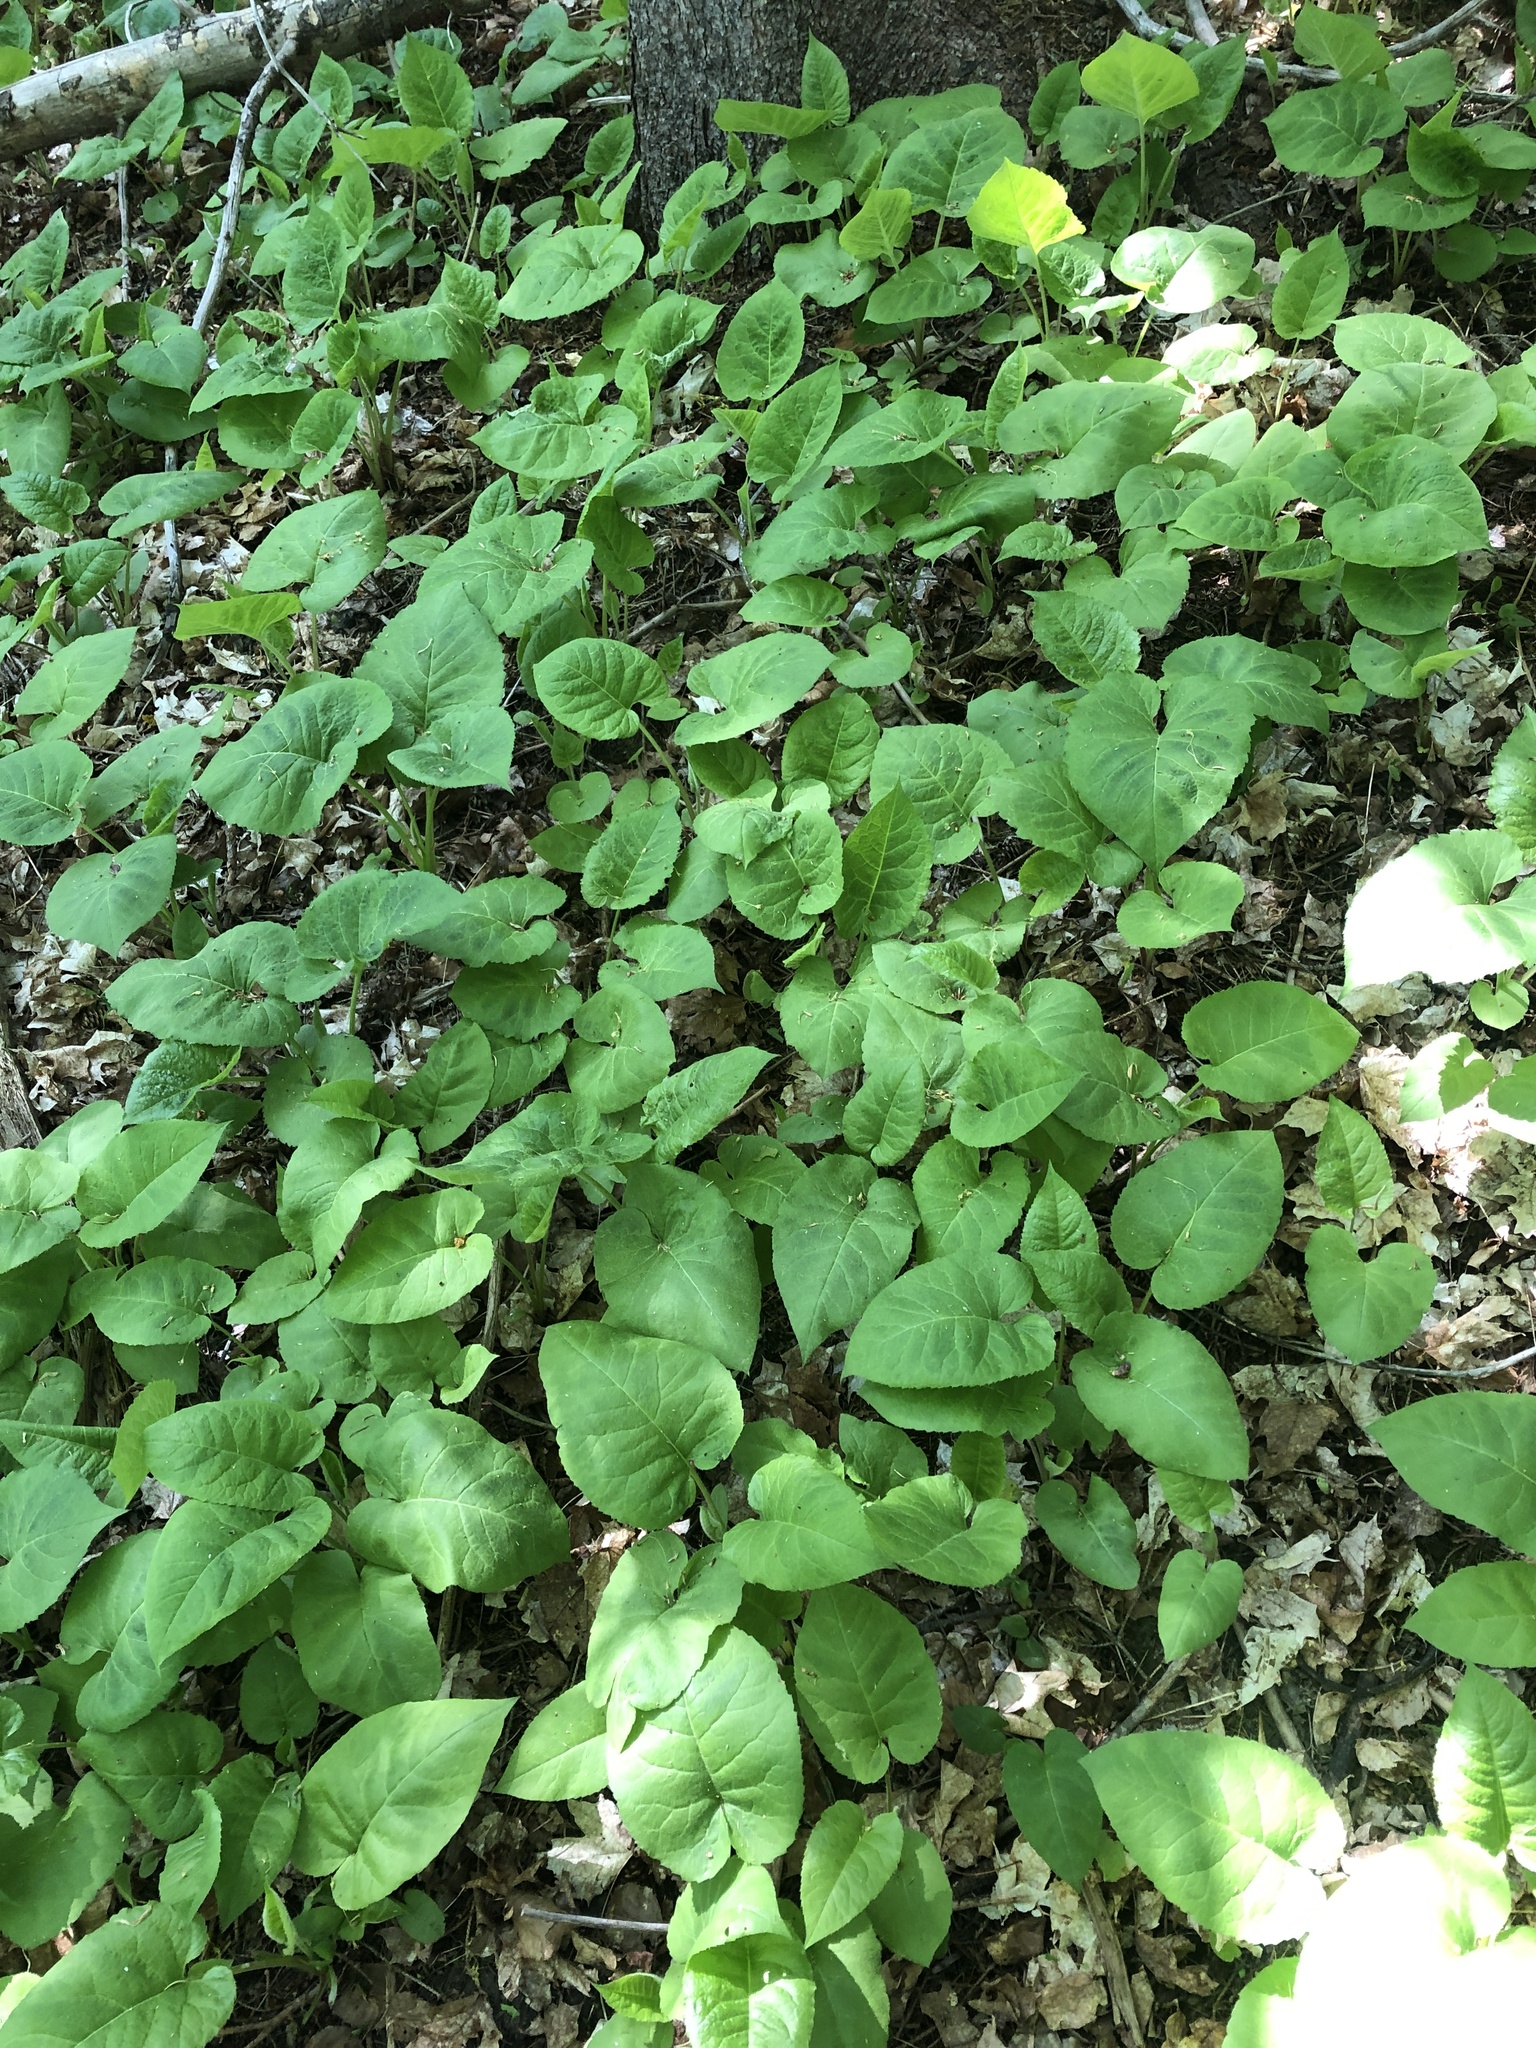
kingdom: Plantae
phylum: Tracheophyta
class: Magnoliopsida
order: Asterales
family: Asteraceae
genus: Eurybia
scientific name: Eurybia macrophylla
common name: Big-leaved aster
